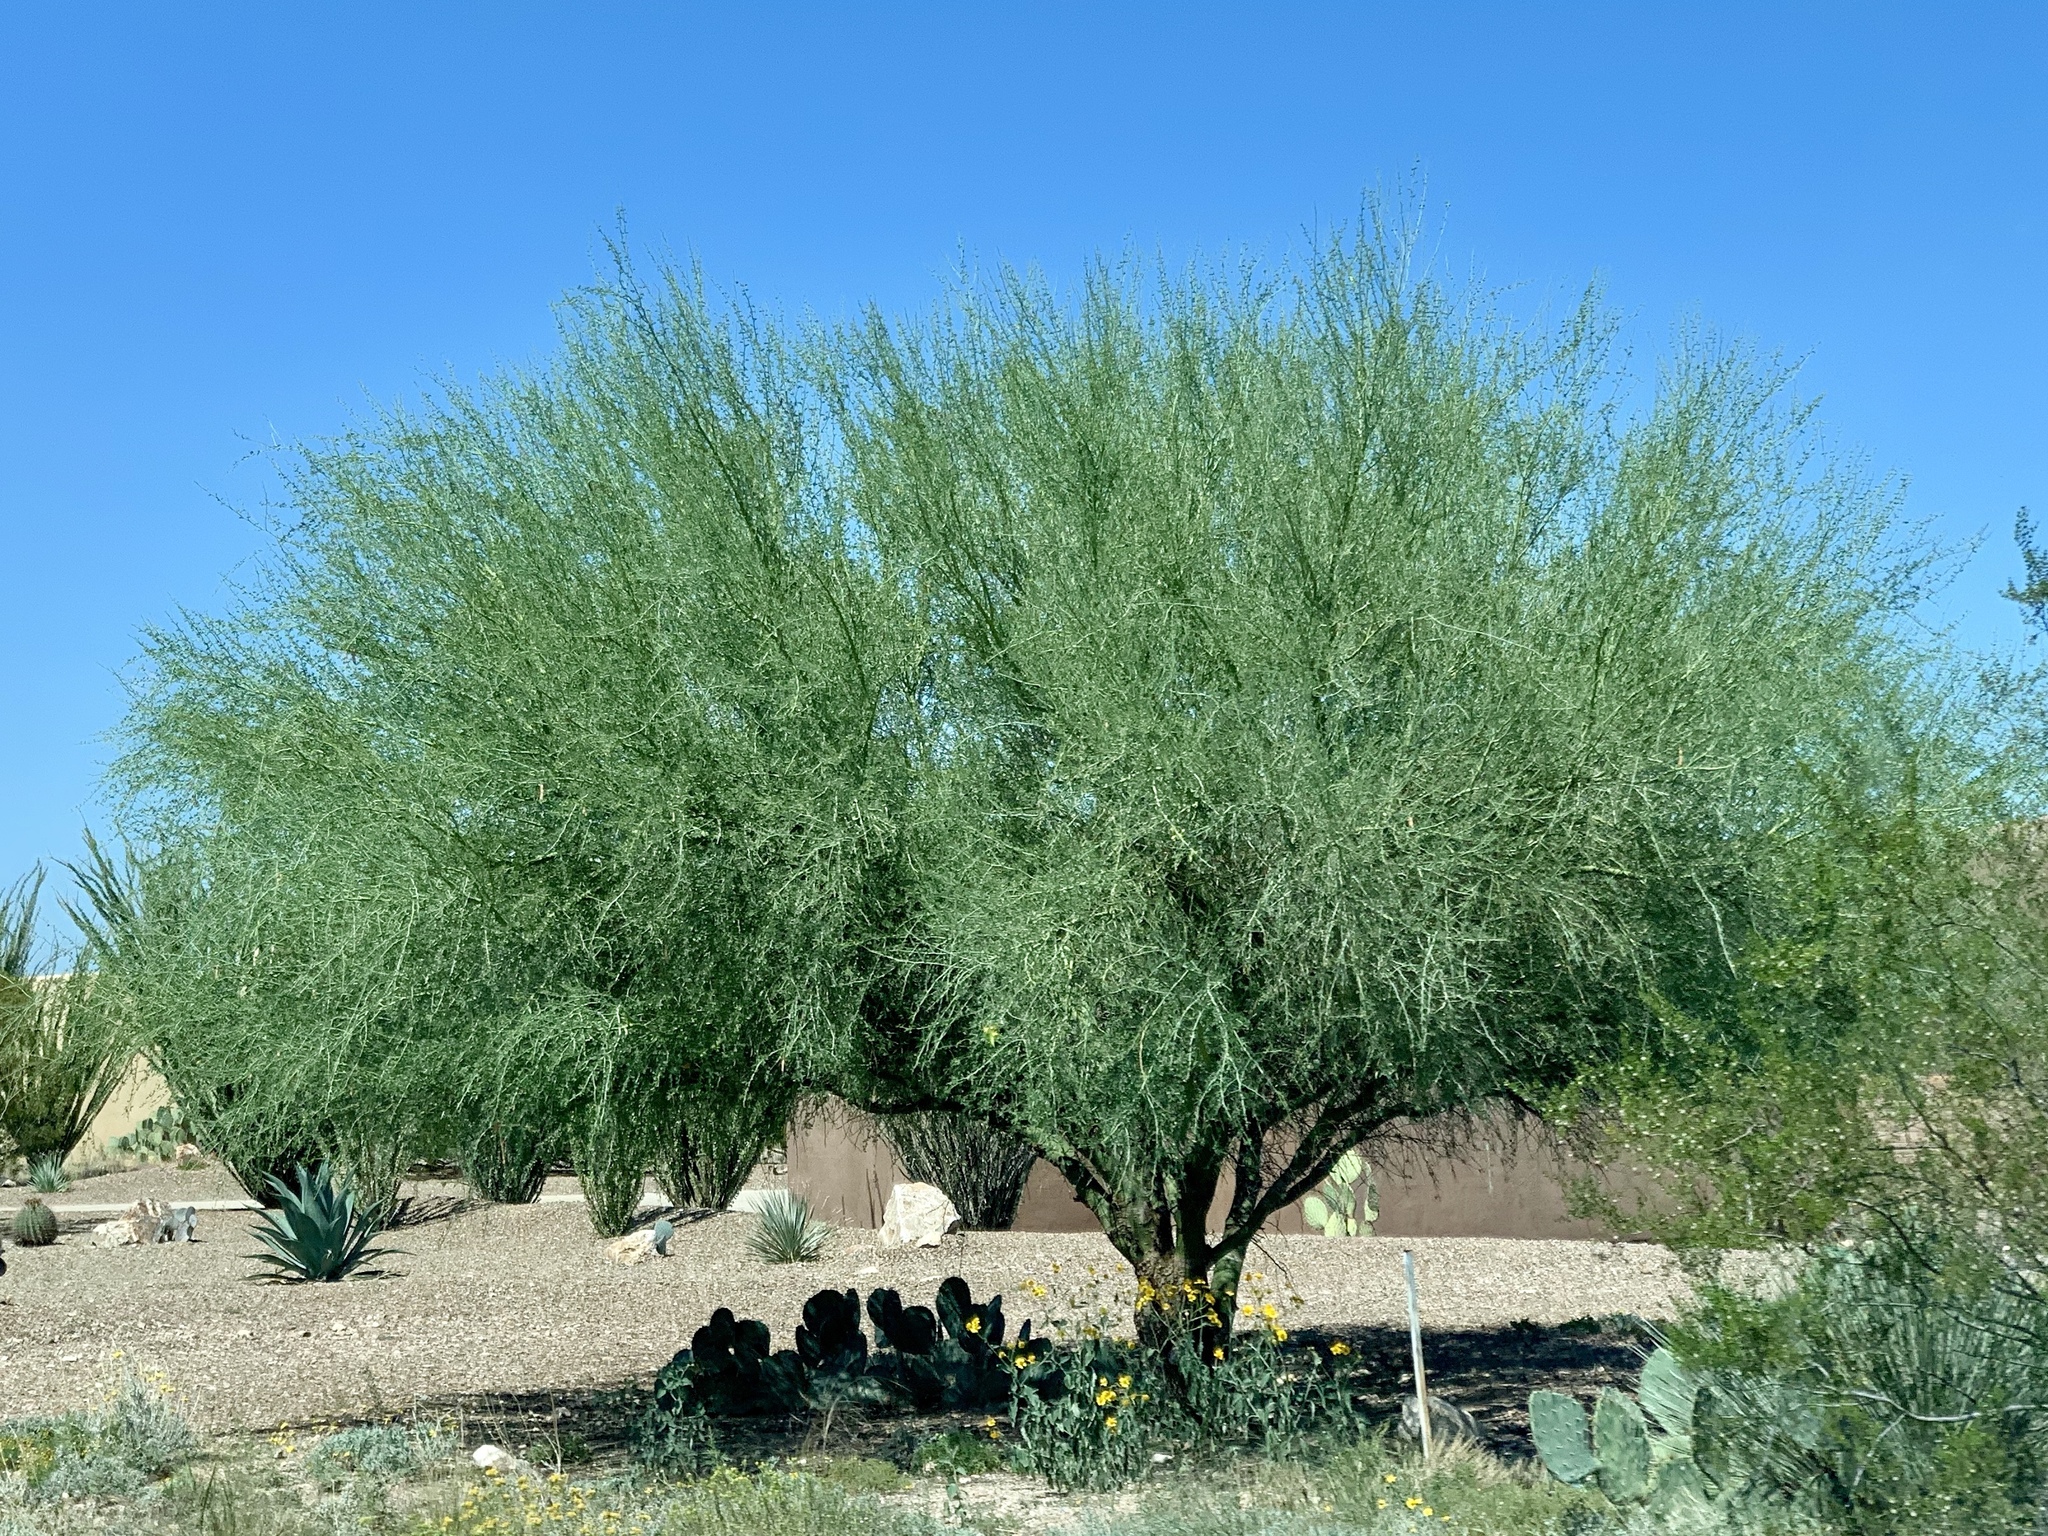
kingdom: Plantae
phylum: Tracheophyta
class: Magnoliopsida
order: Fabales
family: Fabaceae
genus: Parkinsonia
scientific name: Parkinsonia florida
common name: Blue paloverde
